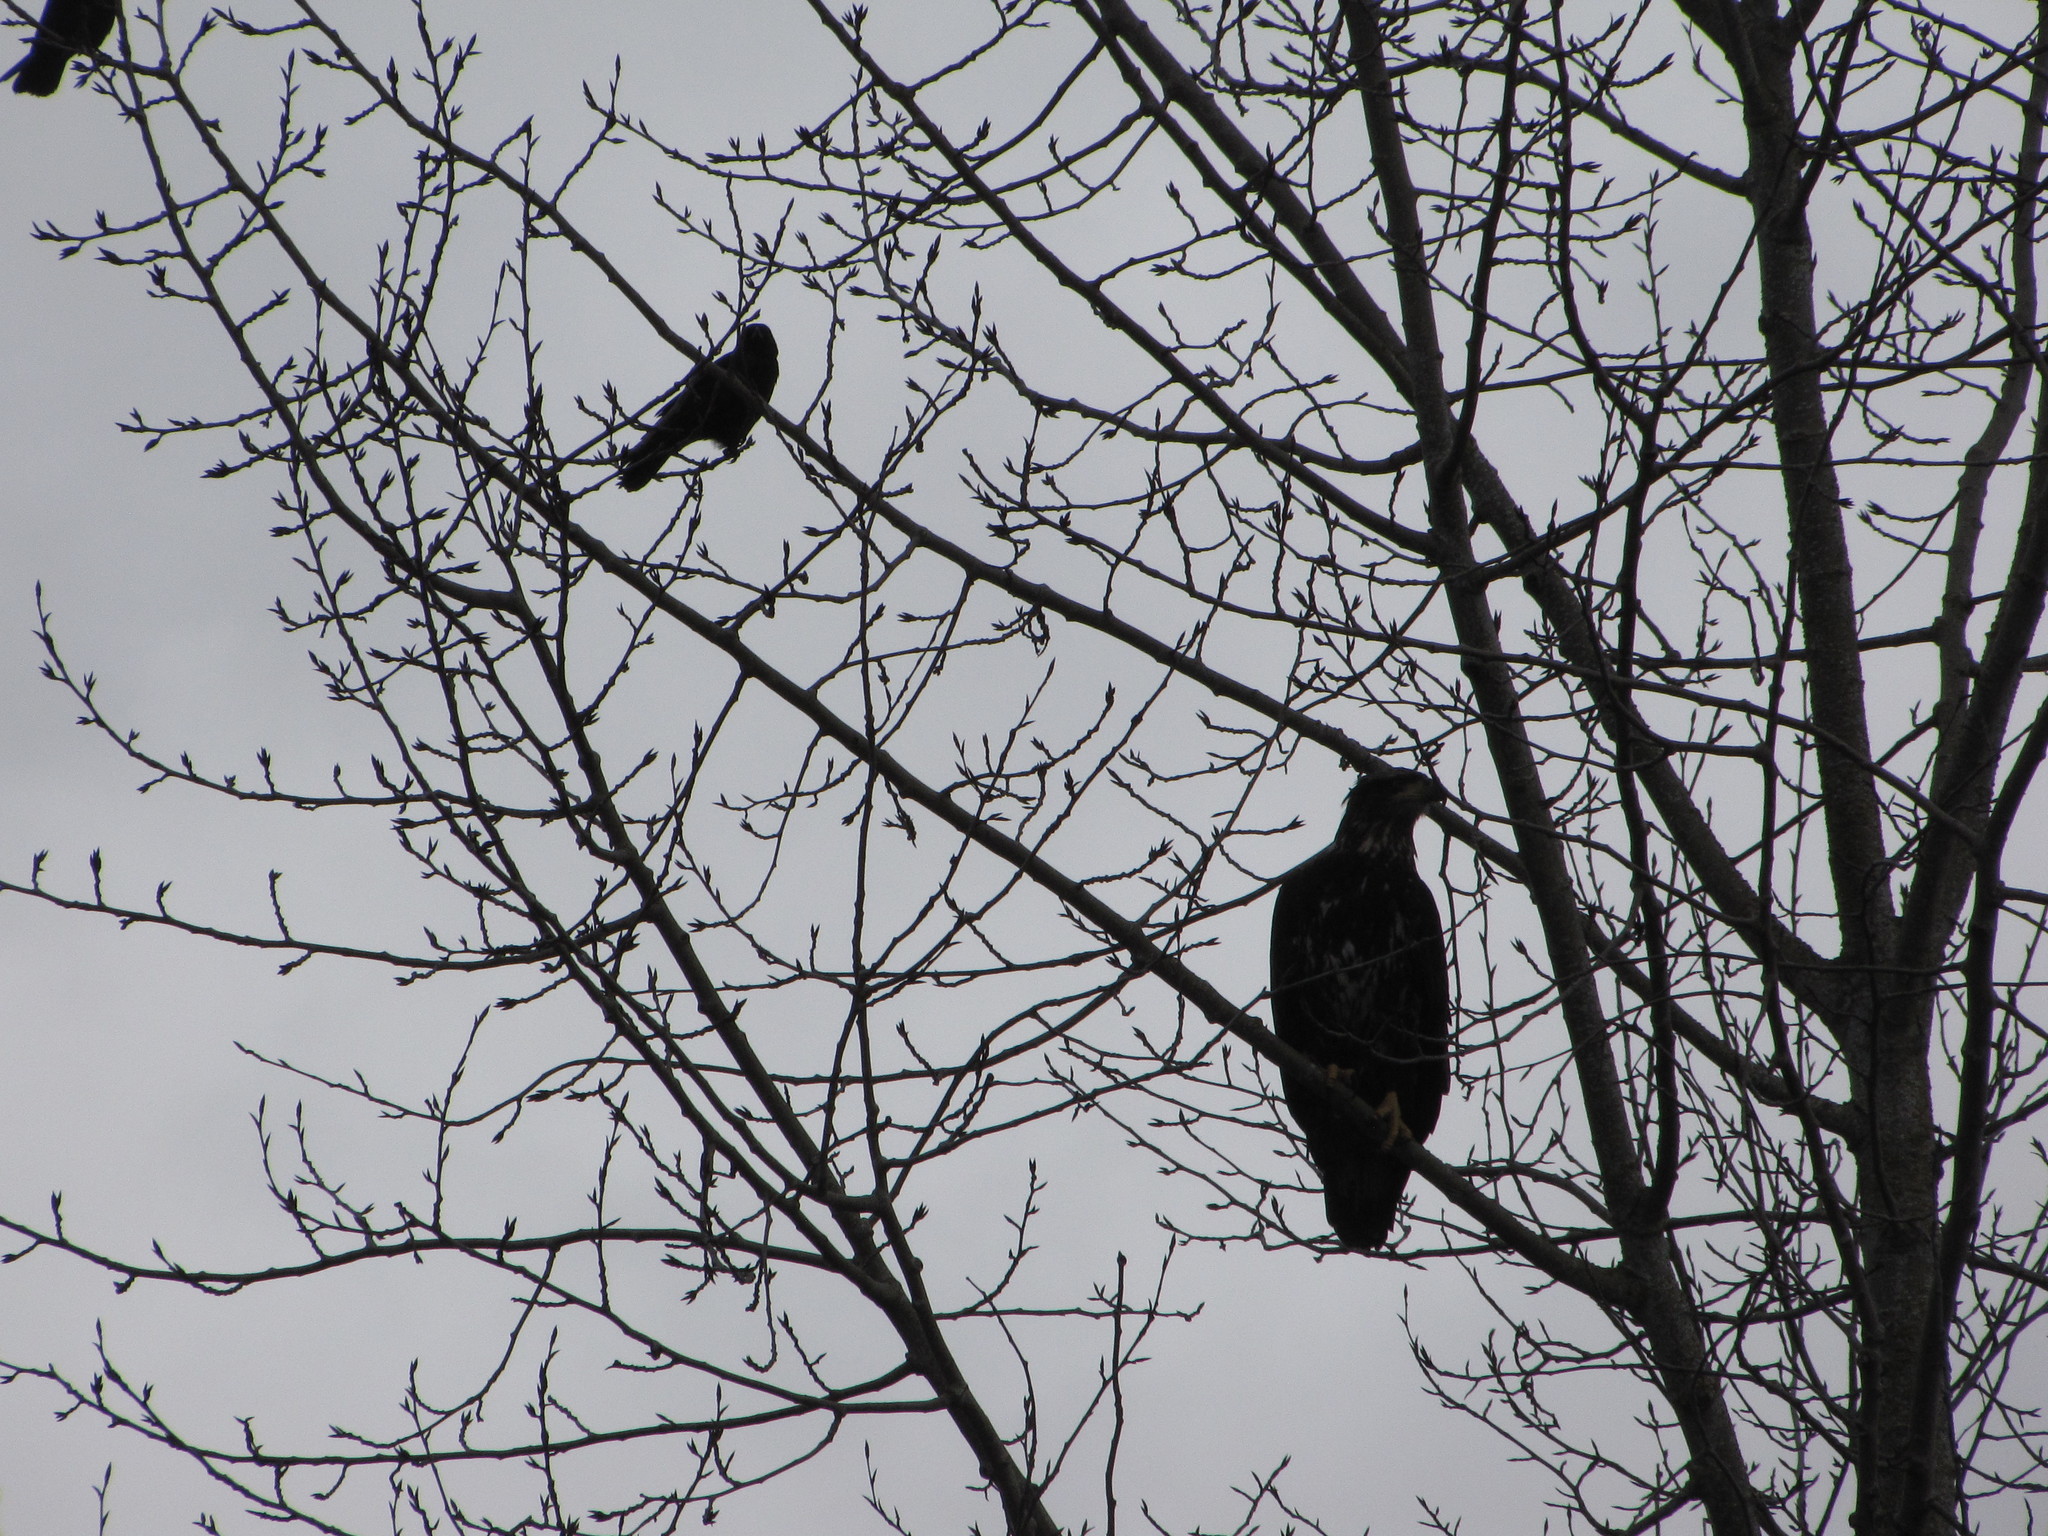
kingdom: Animalia
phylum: Chordata
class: Aves
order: Passeriformes
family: Corvidae
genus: Corvus
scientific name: Corvus corax
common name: Common raven
